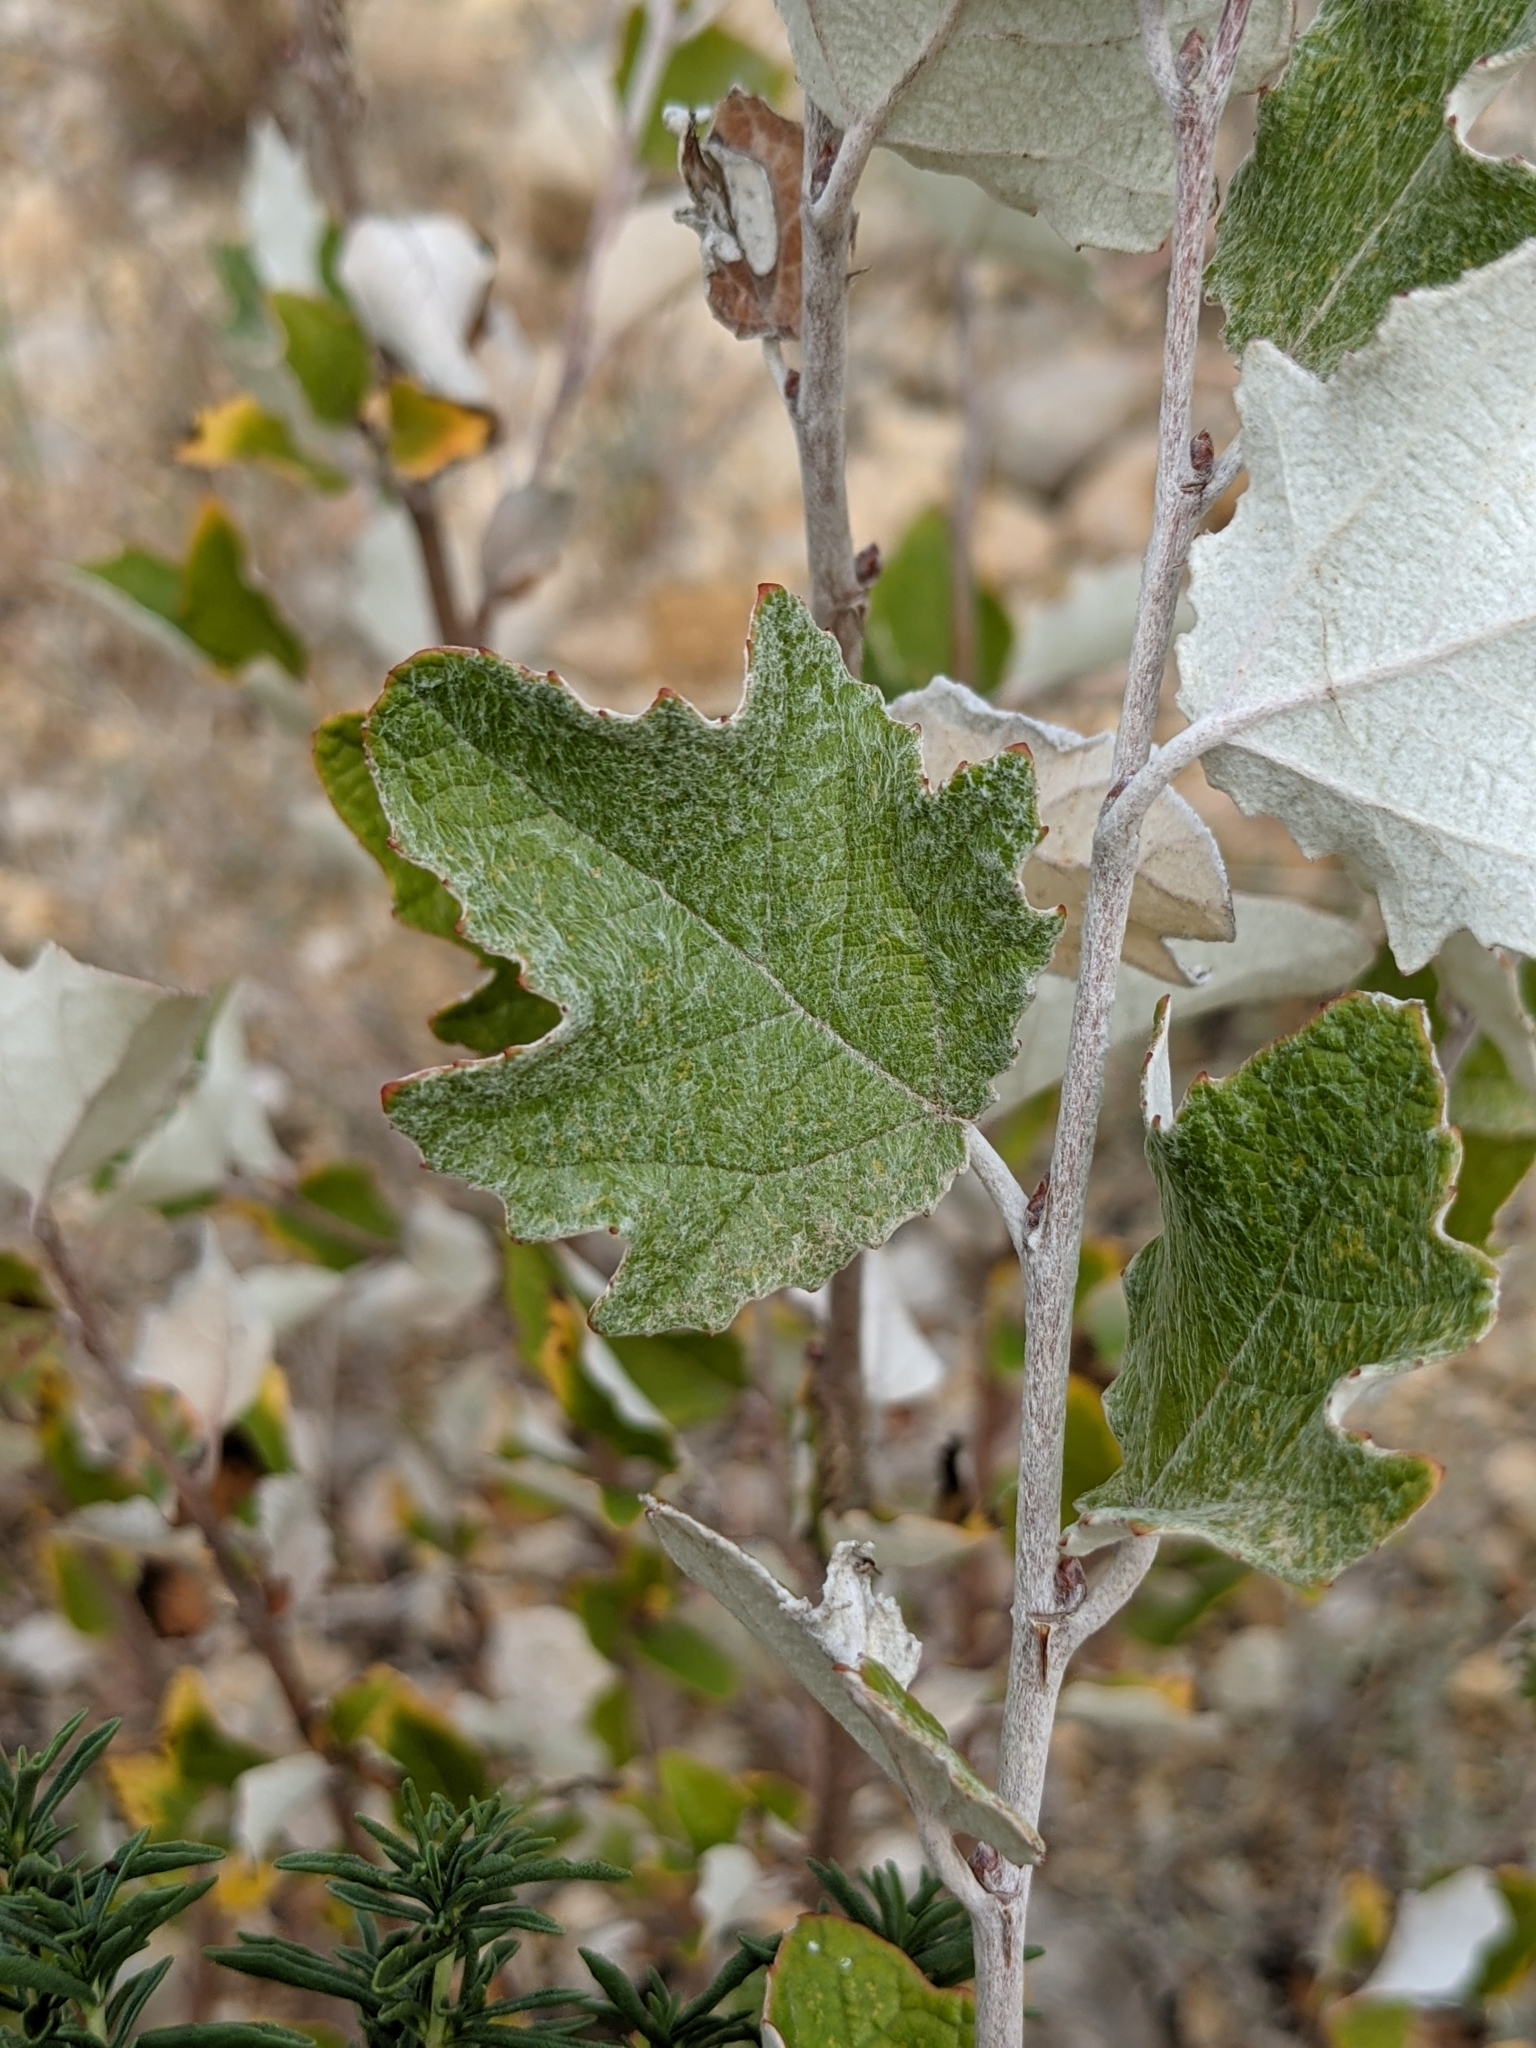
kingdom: Plantae
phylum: Tracheophyta
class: Magnoliopsida
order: Malpighiales
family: Salicaceae
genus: Populus
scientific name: Populus alba
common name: White poplar
